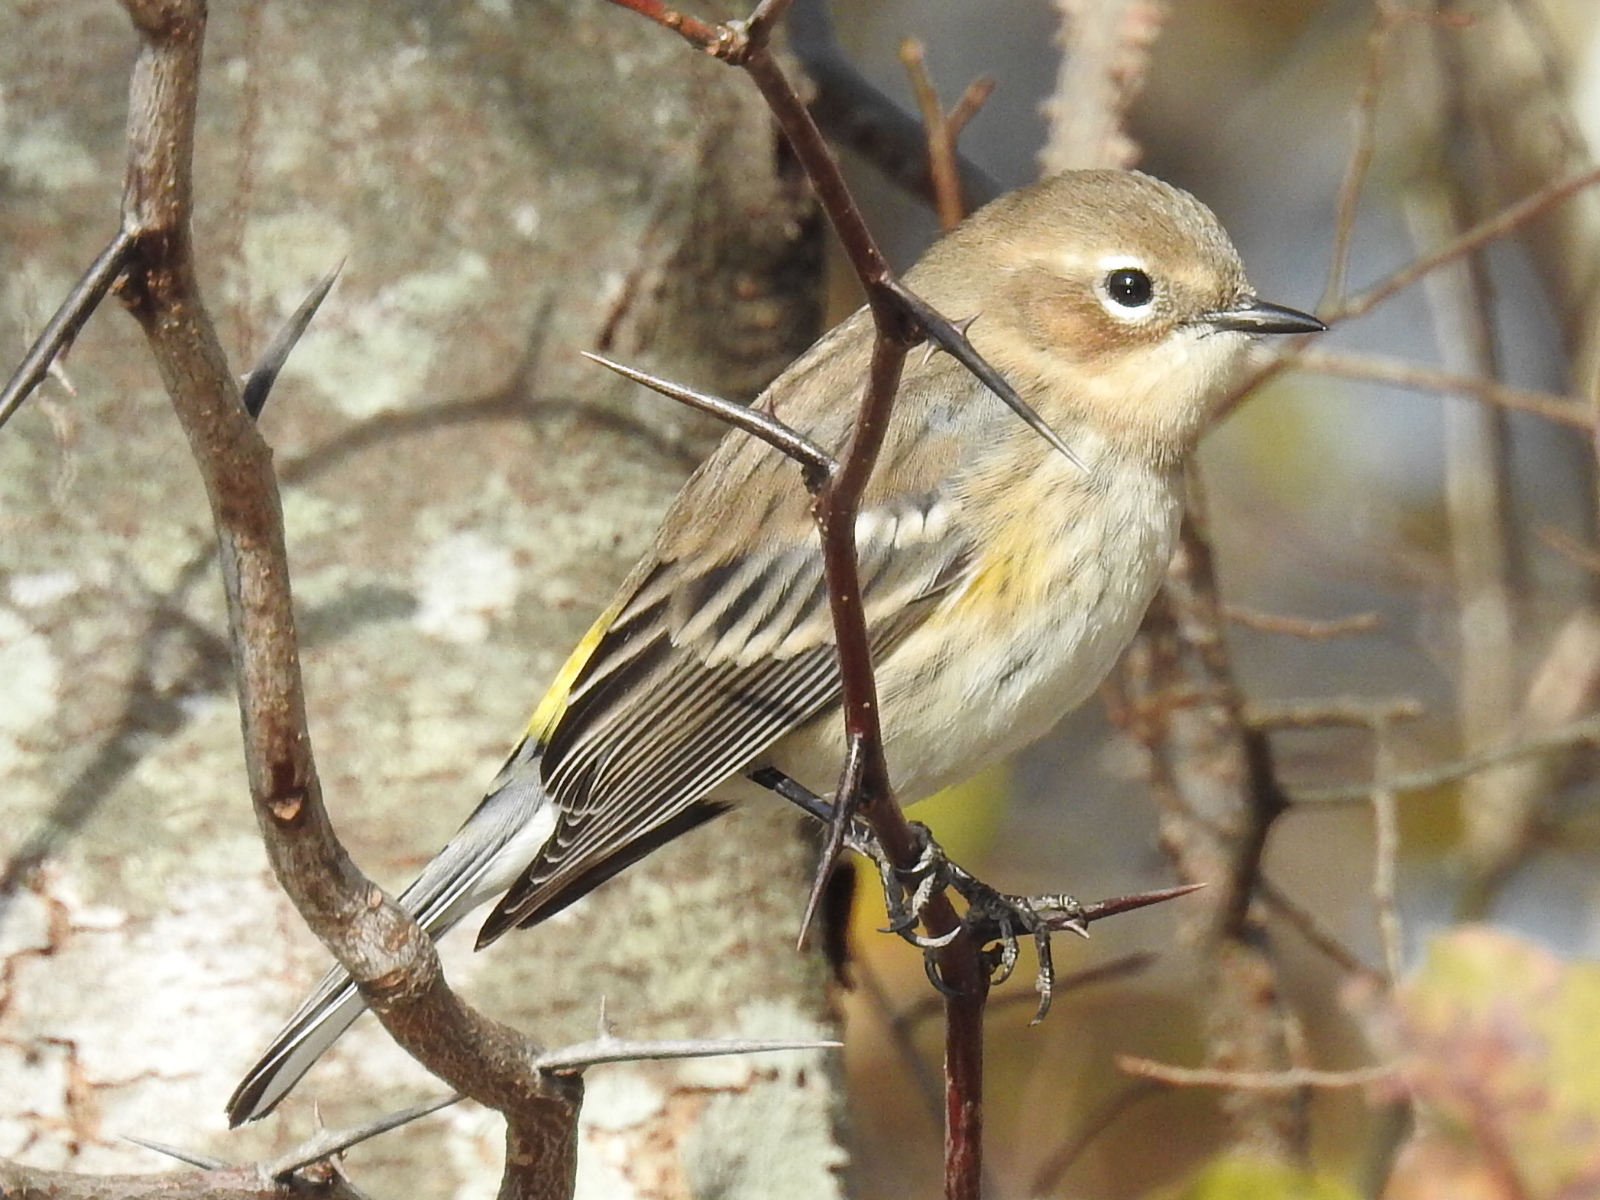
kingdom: Animalia
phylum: Chordata
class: Aves
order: Passeriformes
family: Parulidae
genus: Setophaga
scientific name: Setophaga coronata
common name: Myrtle warbler
